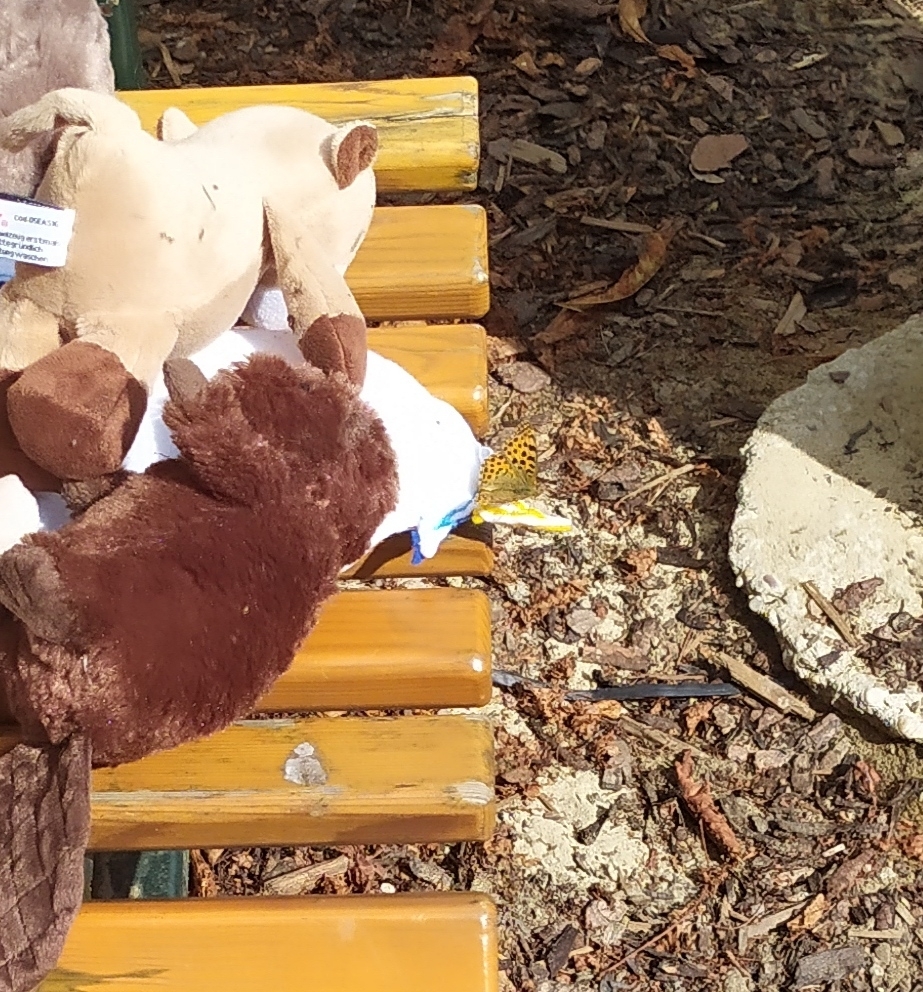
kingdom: Animalia
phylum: Arthropoda
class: Insecta
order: Lepidoptera
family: Nymphalidae
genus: Issoria
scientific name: Issoria lathonia
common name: Queen of spain fritillary
